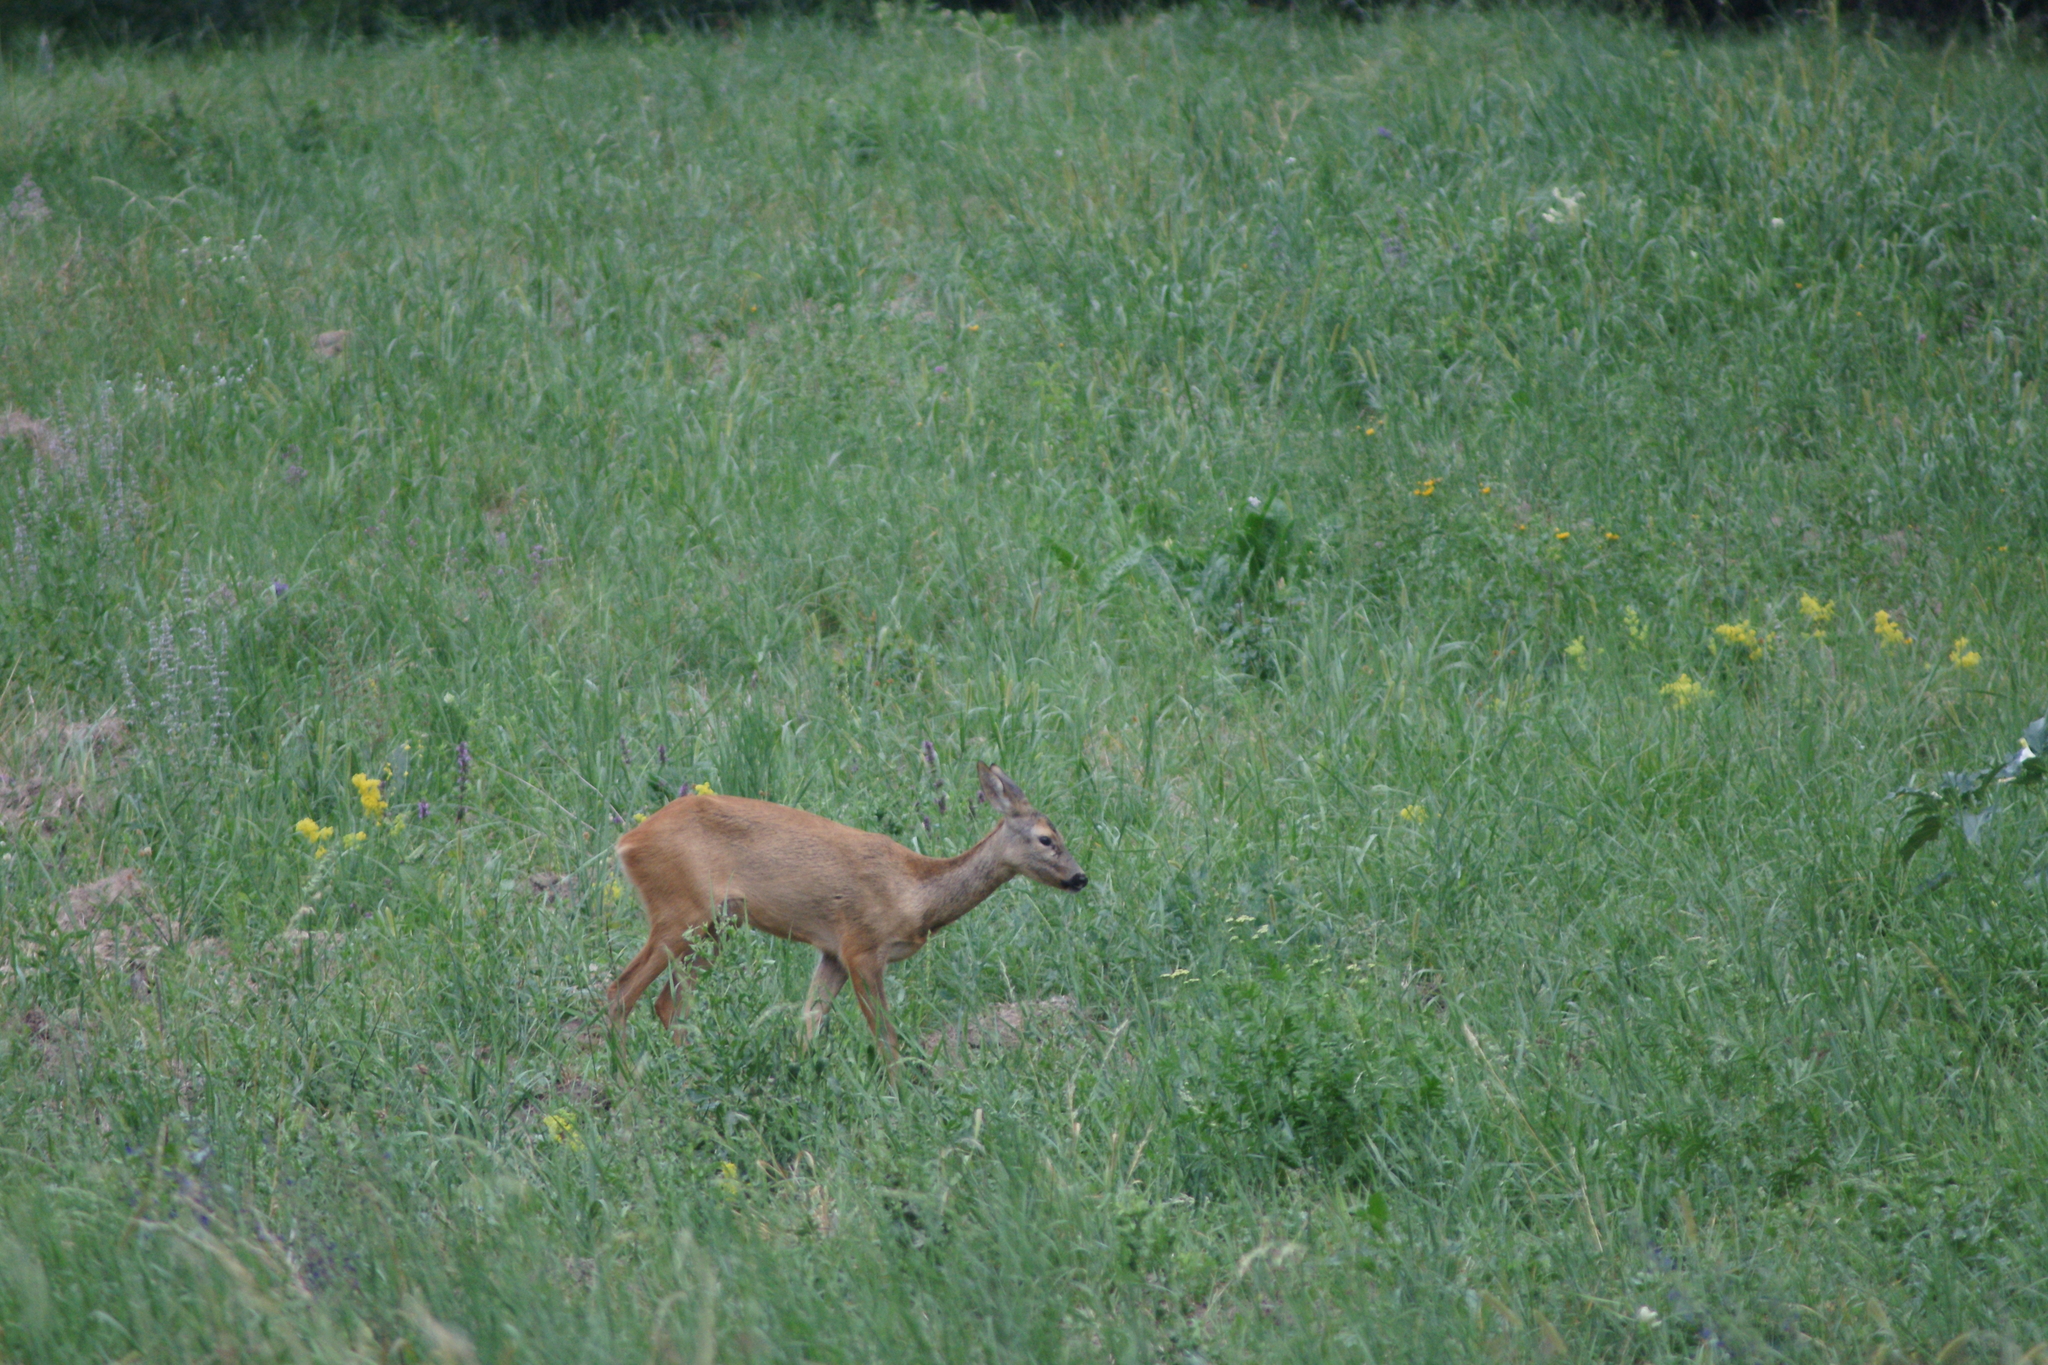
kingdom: Animalia
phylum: Chordata
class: Mammalia
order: Artiodactyla
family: Cervidae
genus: Capreolus
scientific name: Capreolus capreolus
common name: Western roe deer
